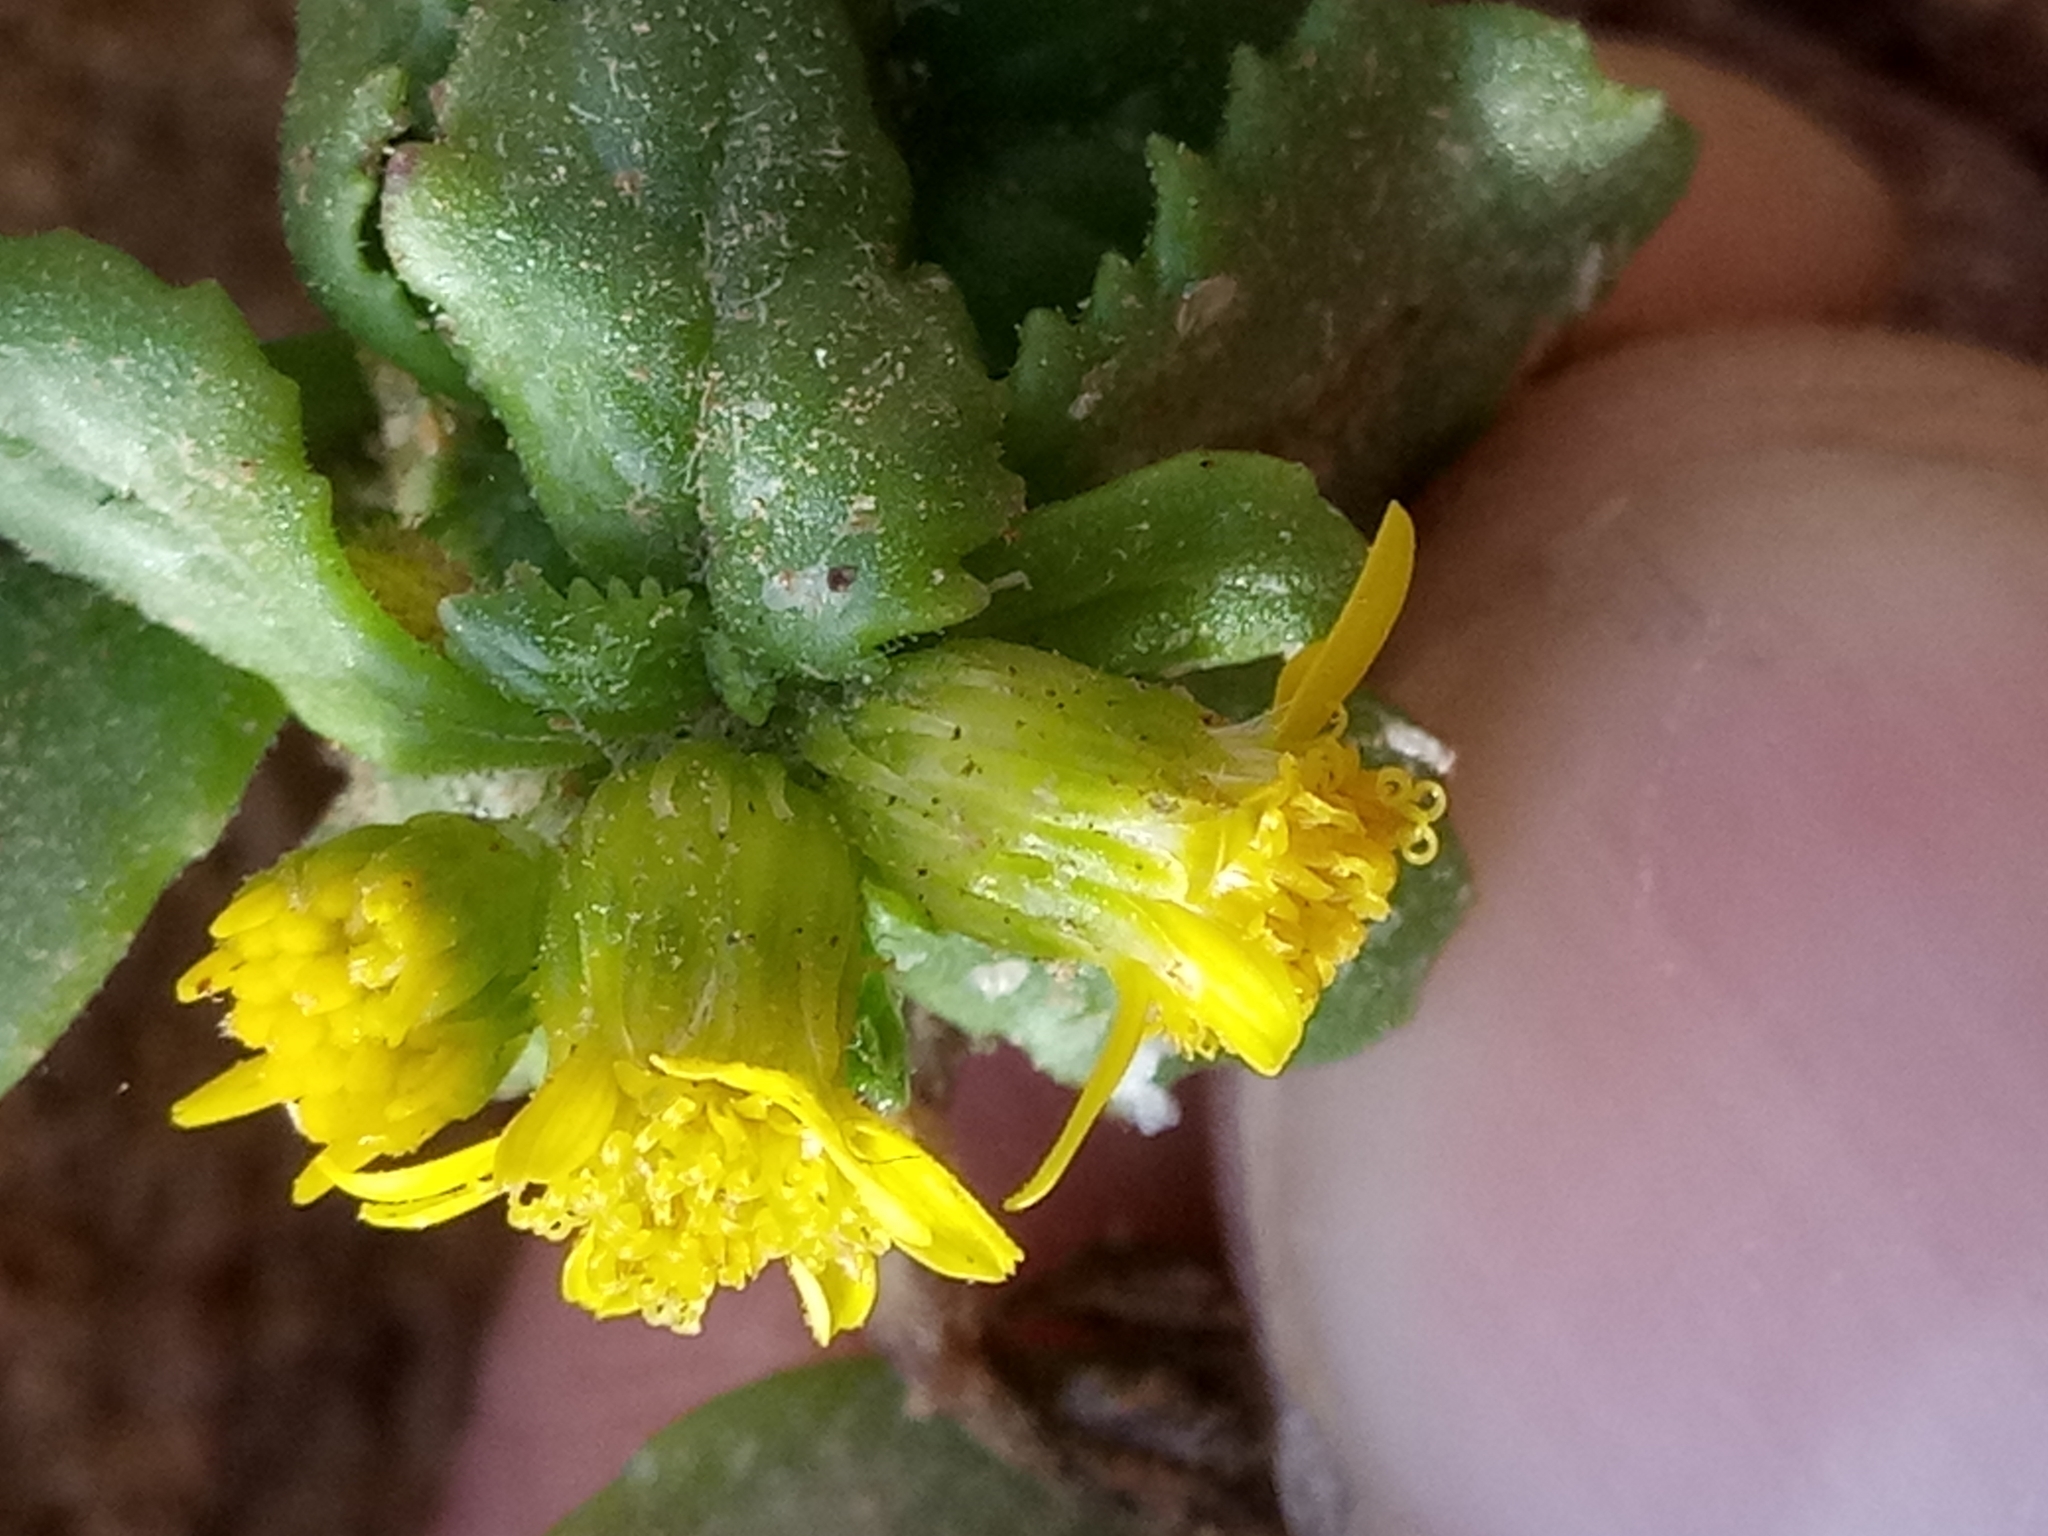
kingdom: Plantae
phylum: Tracheophyta
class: Magnoliopsida
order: Asterales
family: Asteraceae
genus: Senecio
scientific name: Senecio leucanthemifolius
